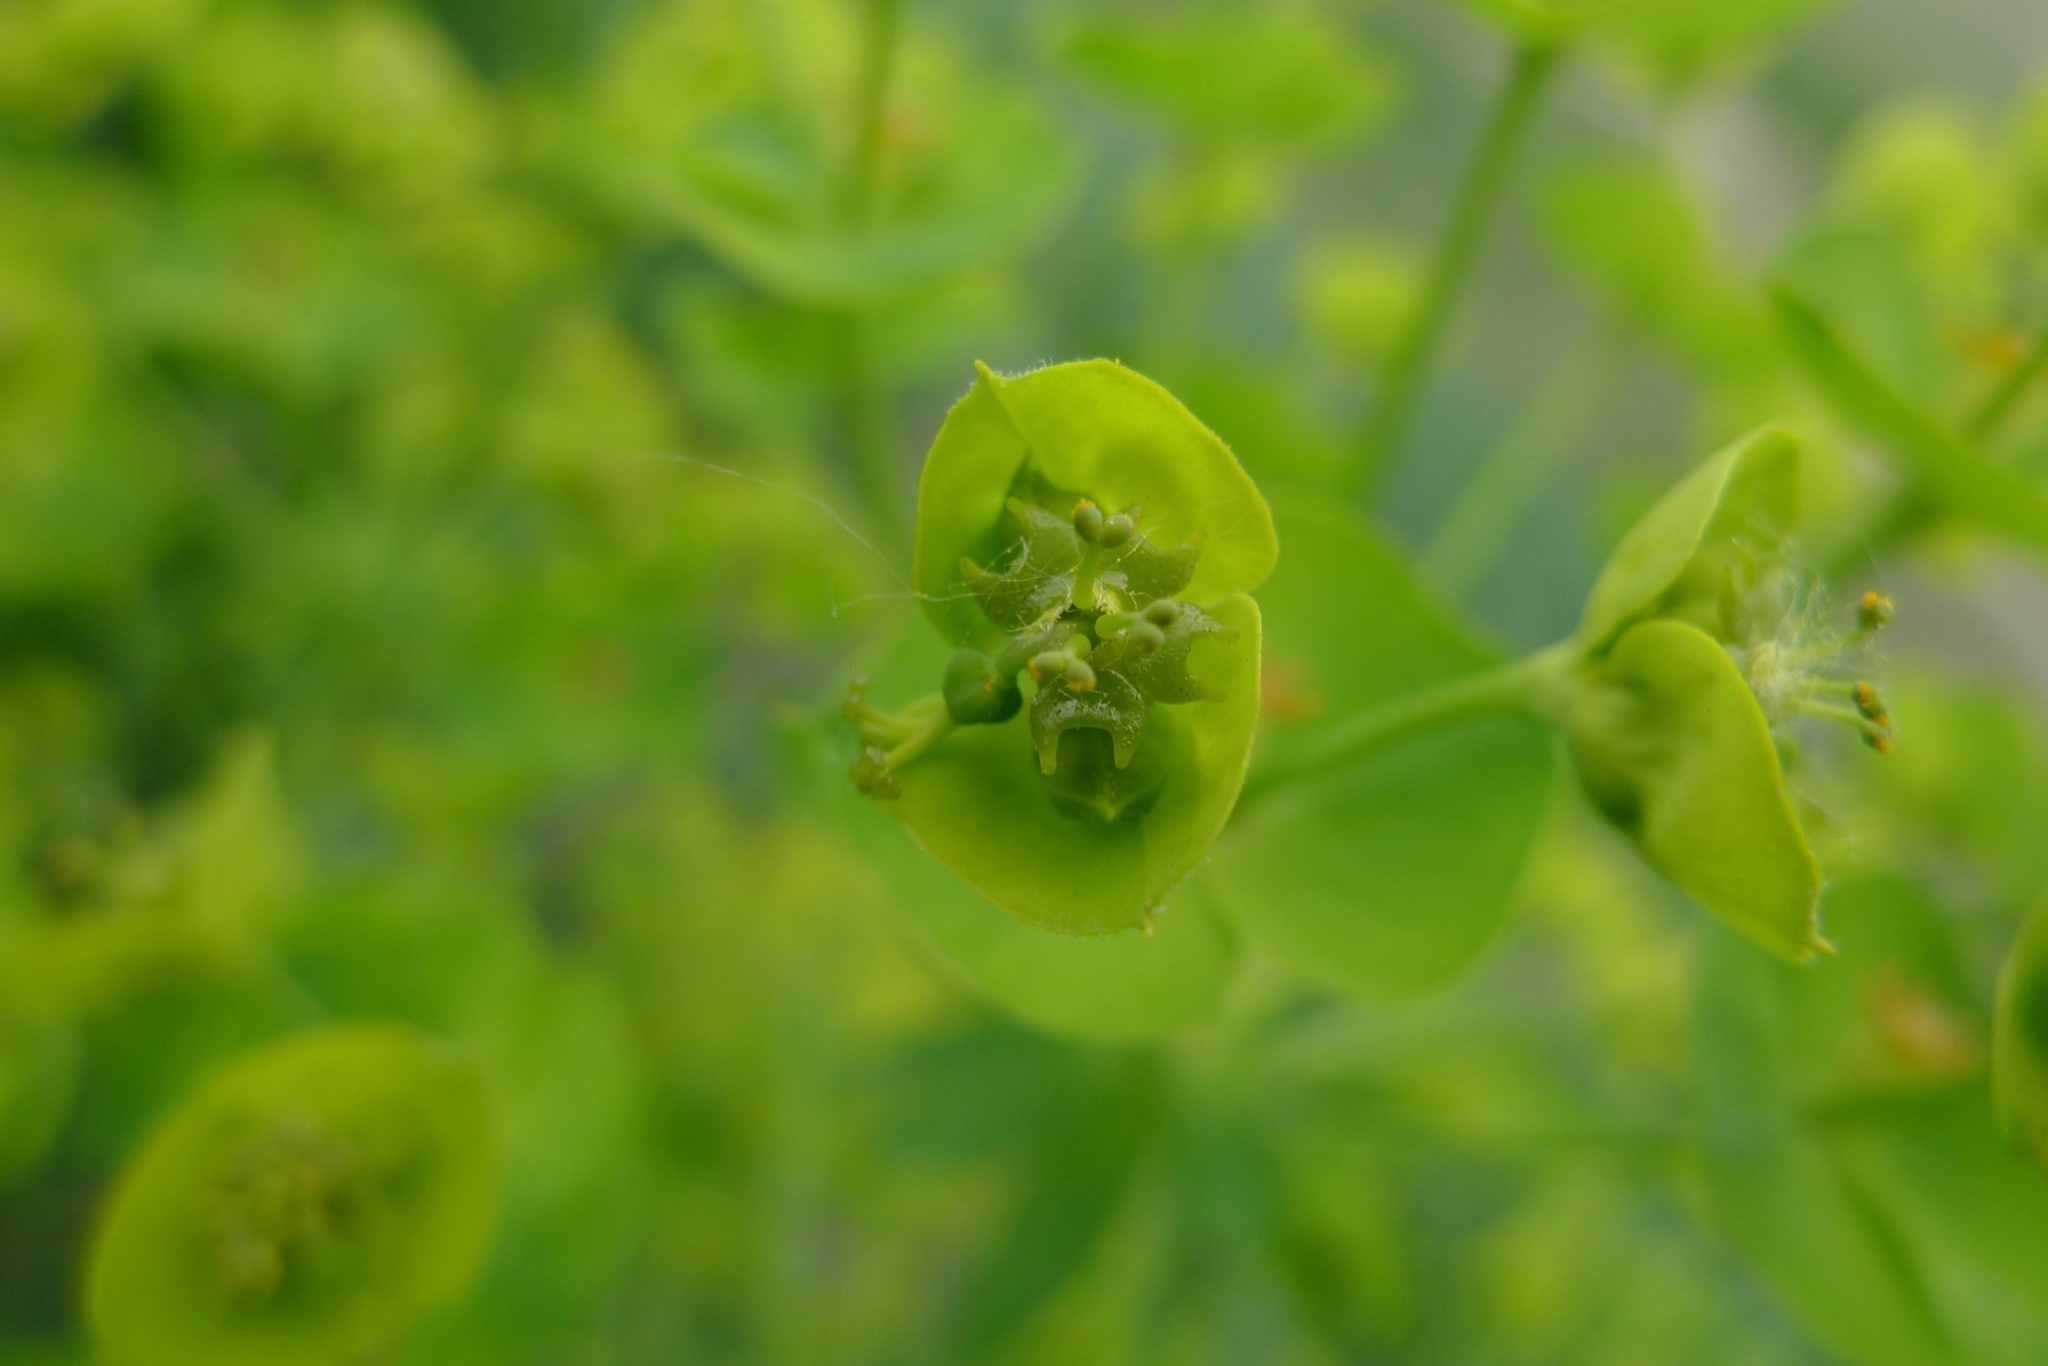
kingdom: Plantae
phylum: Tracheophyta
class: Magnoliopsida
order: Malpighiales
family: Euphorbiaceae
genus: Euphorbia
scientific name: Euphorbia esula
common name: Leafy spurge
